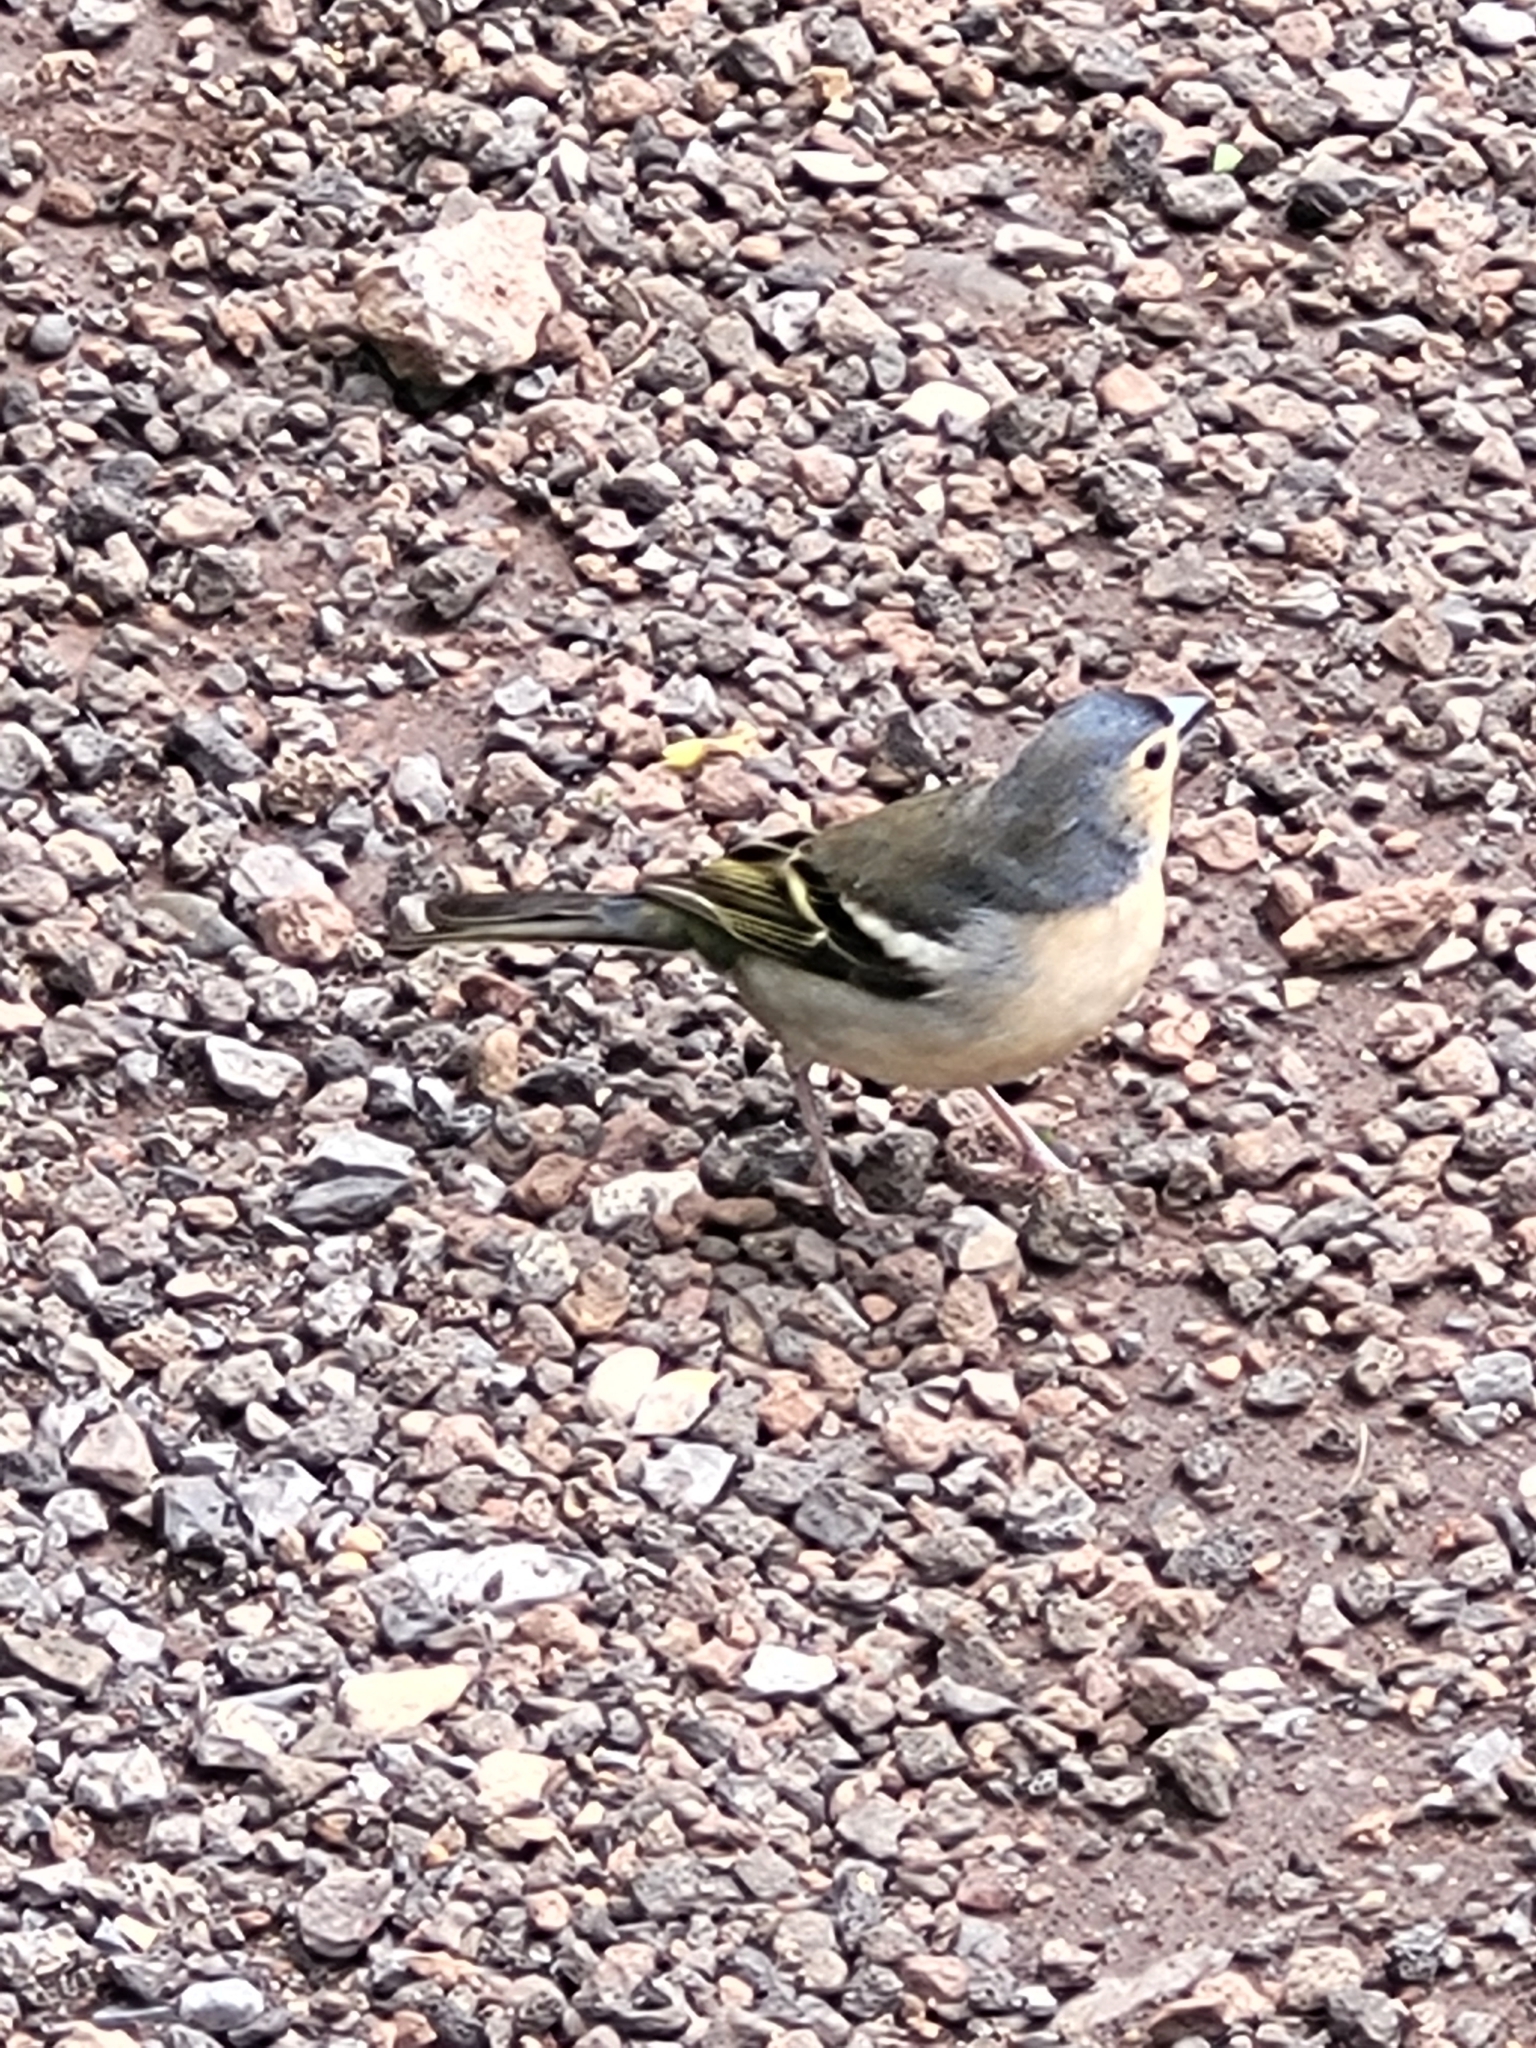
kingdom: Animalia
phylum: Chordata
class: Aves
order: Passeriformes
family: Fringillidae
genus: Fringilla
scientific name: Fringilla canariensis
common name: Canary islands chaffinch
